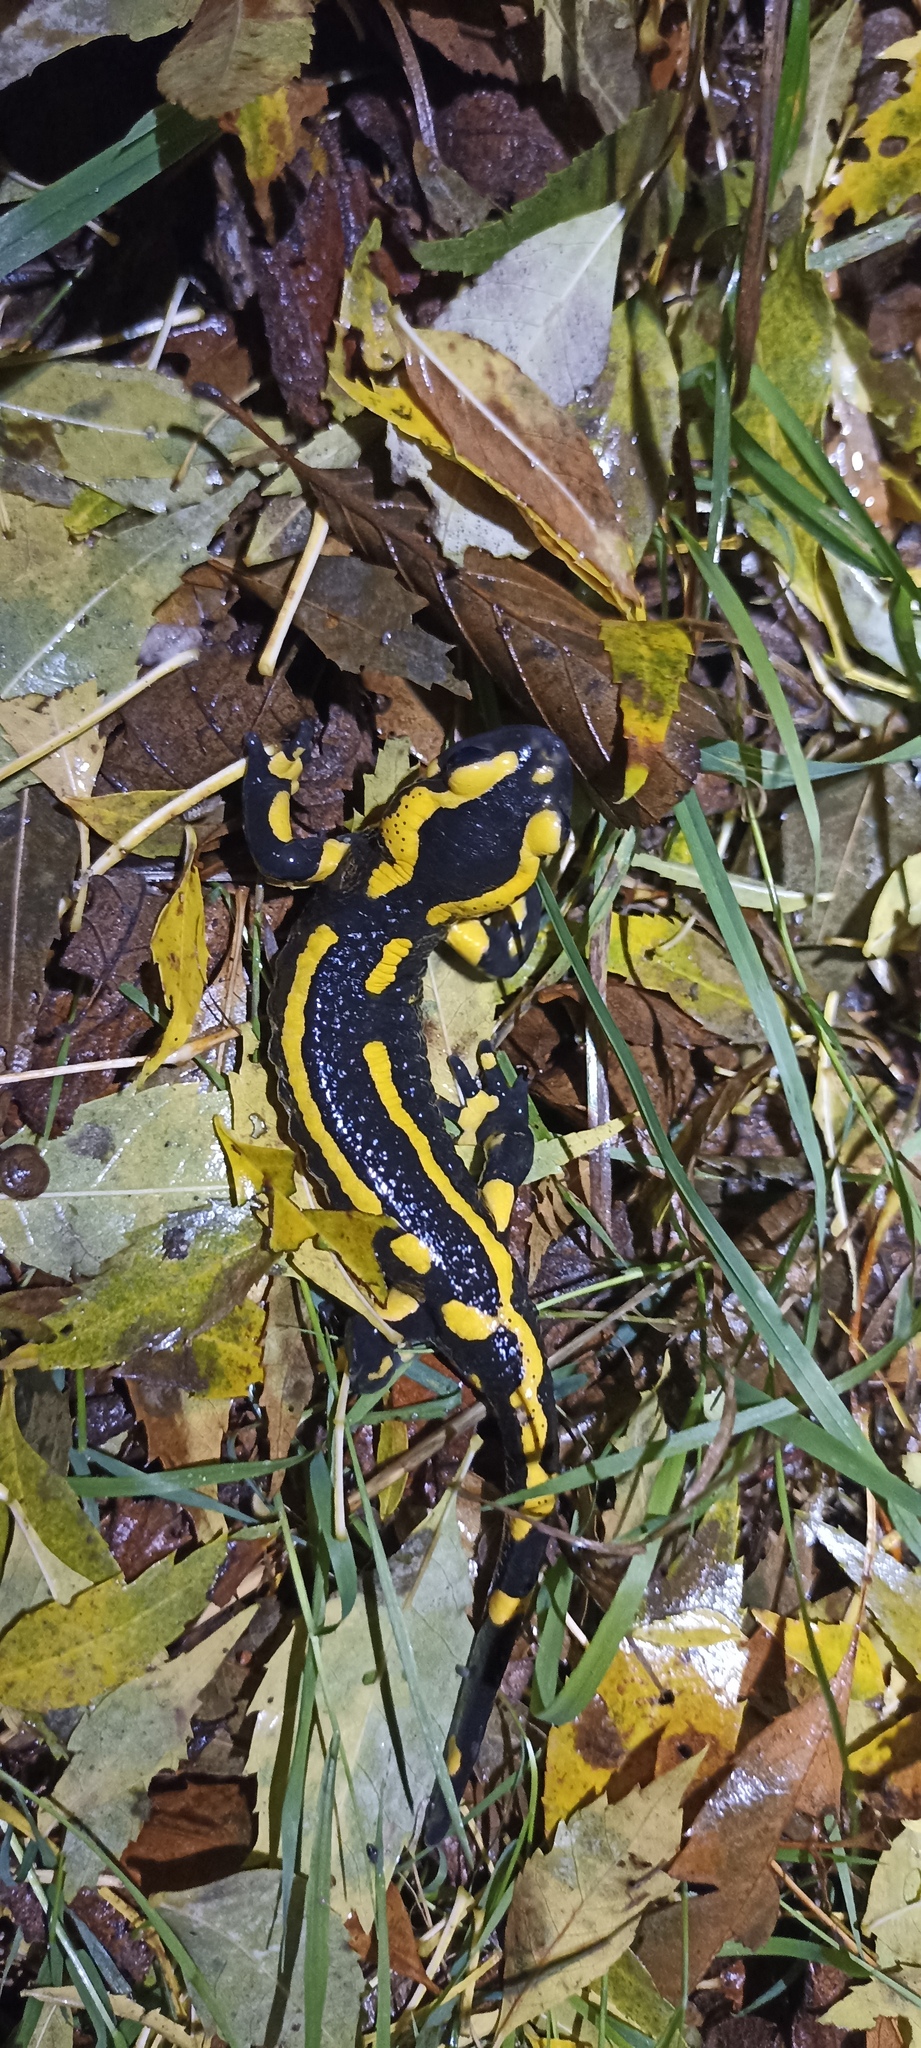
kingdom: Animalia
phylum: Chordata
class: Amphibia
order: Caudata
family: Salamandridae
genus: Salamandra
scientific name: Salamandra salamandra
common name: Fire salamander
